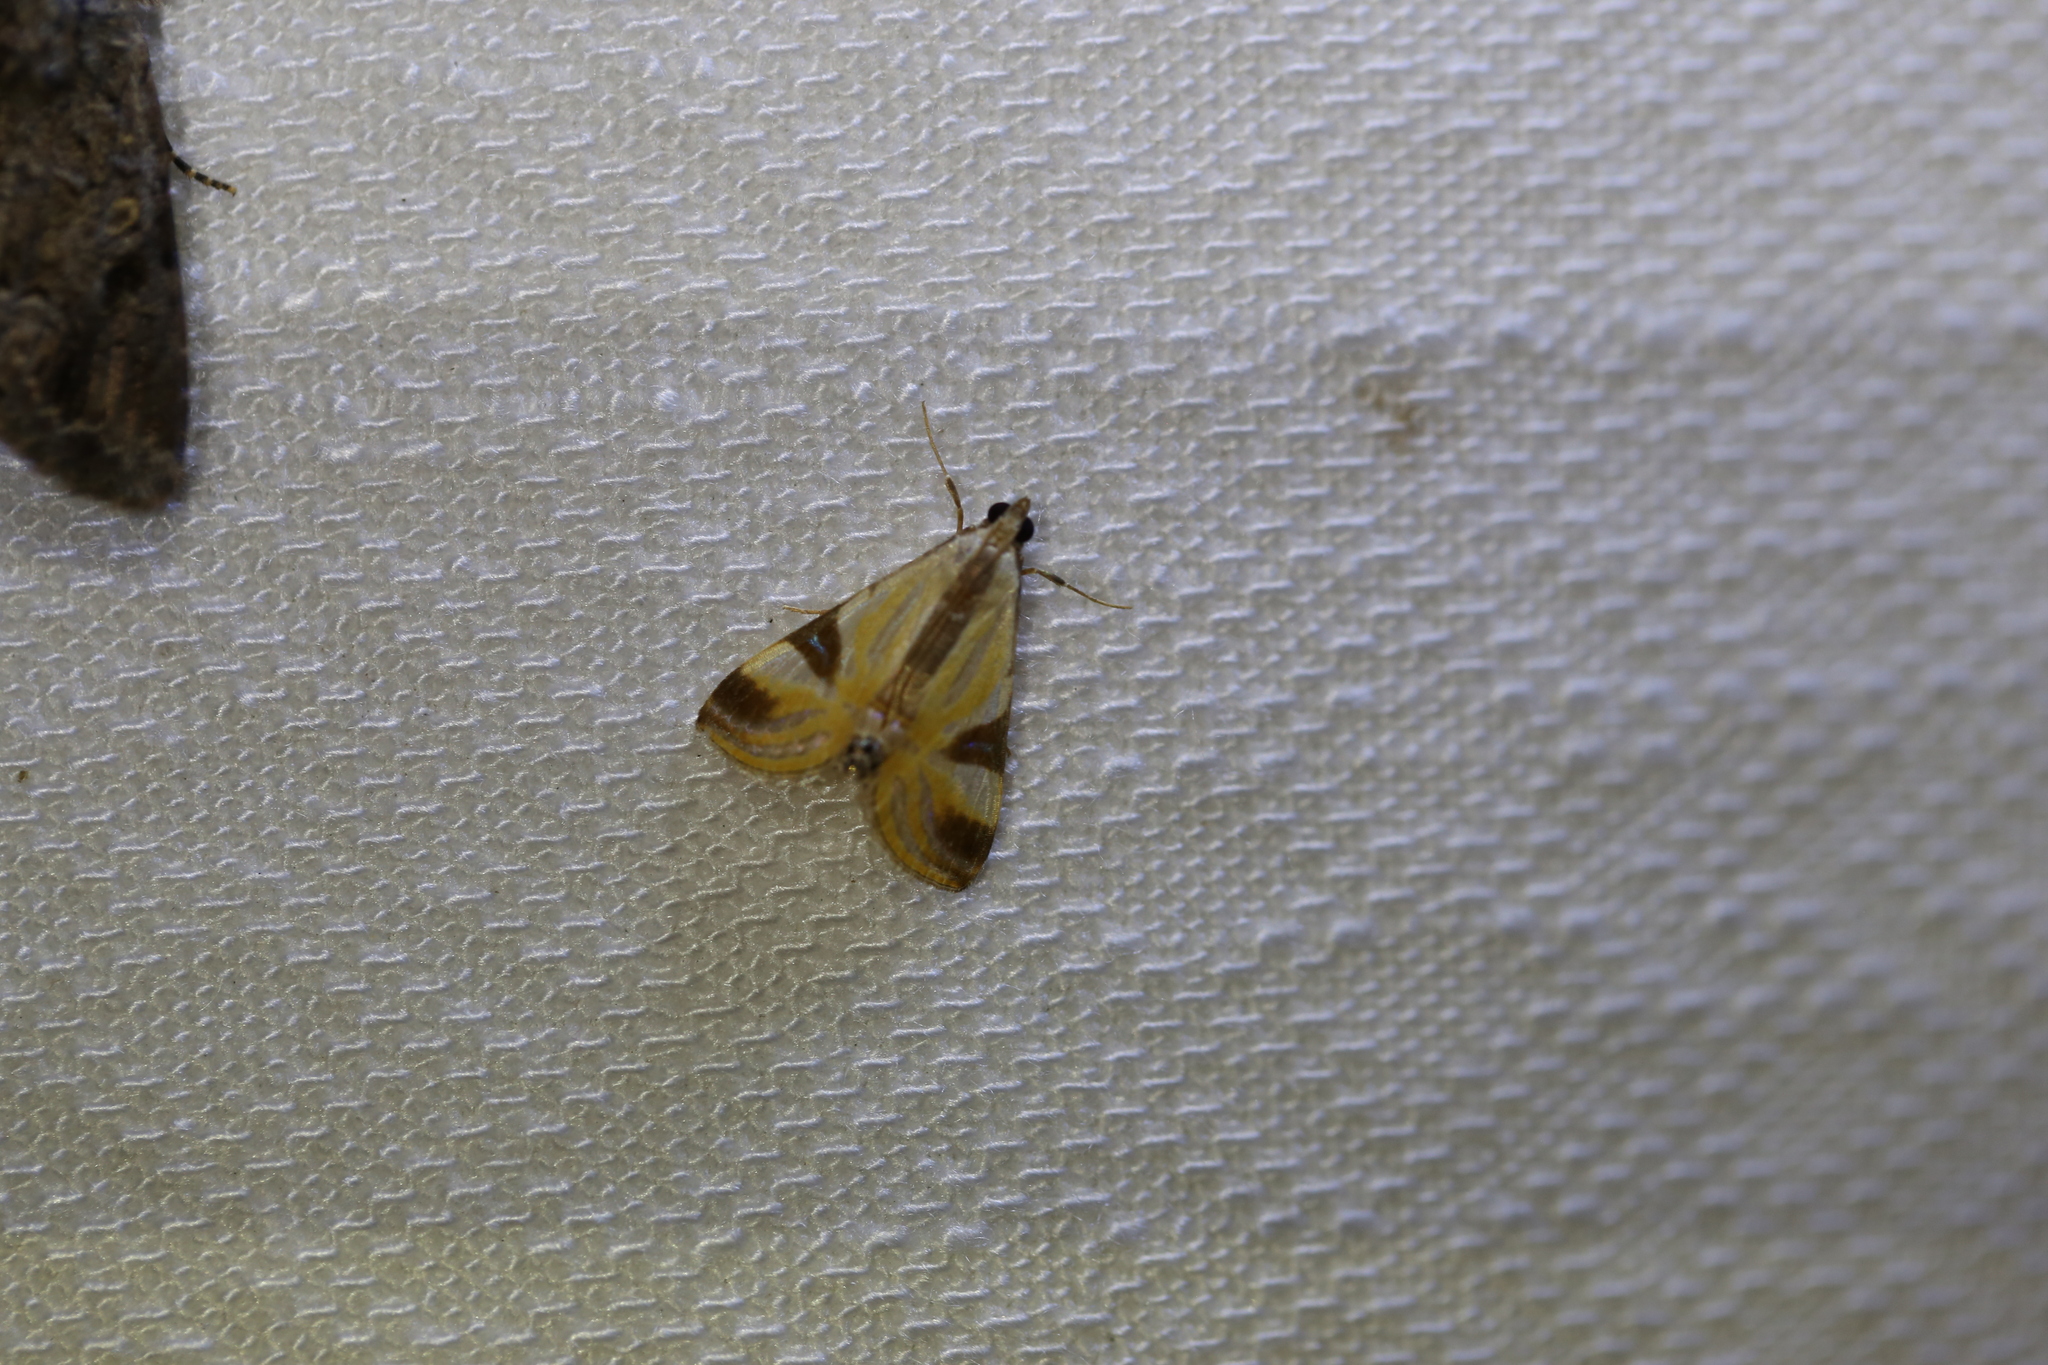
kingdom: Animalia
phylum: Arthropoda
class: Insecta
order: Lepidoptera
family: Crambidae
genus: Talanga
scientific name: Talanga tolumnialis
